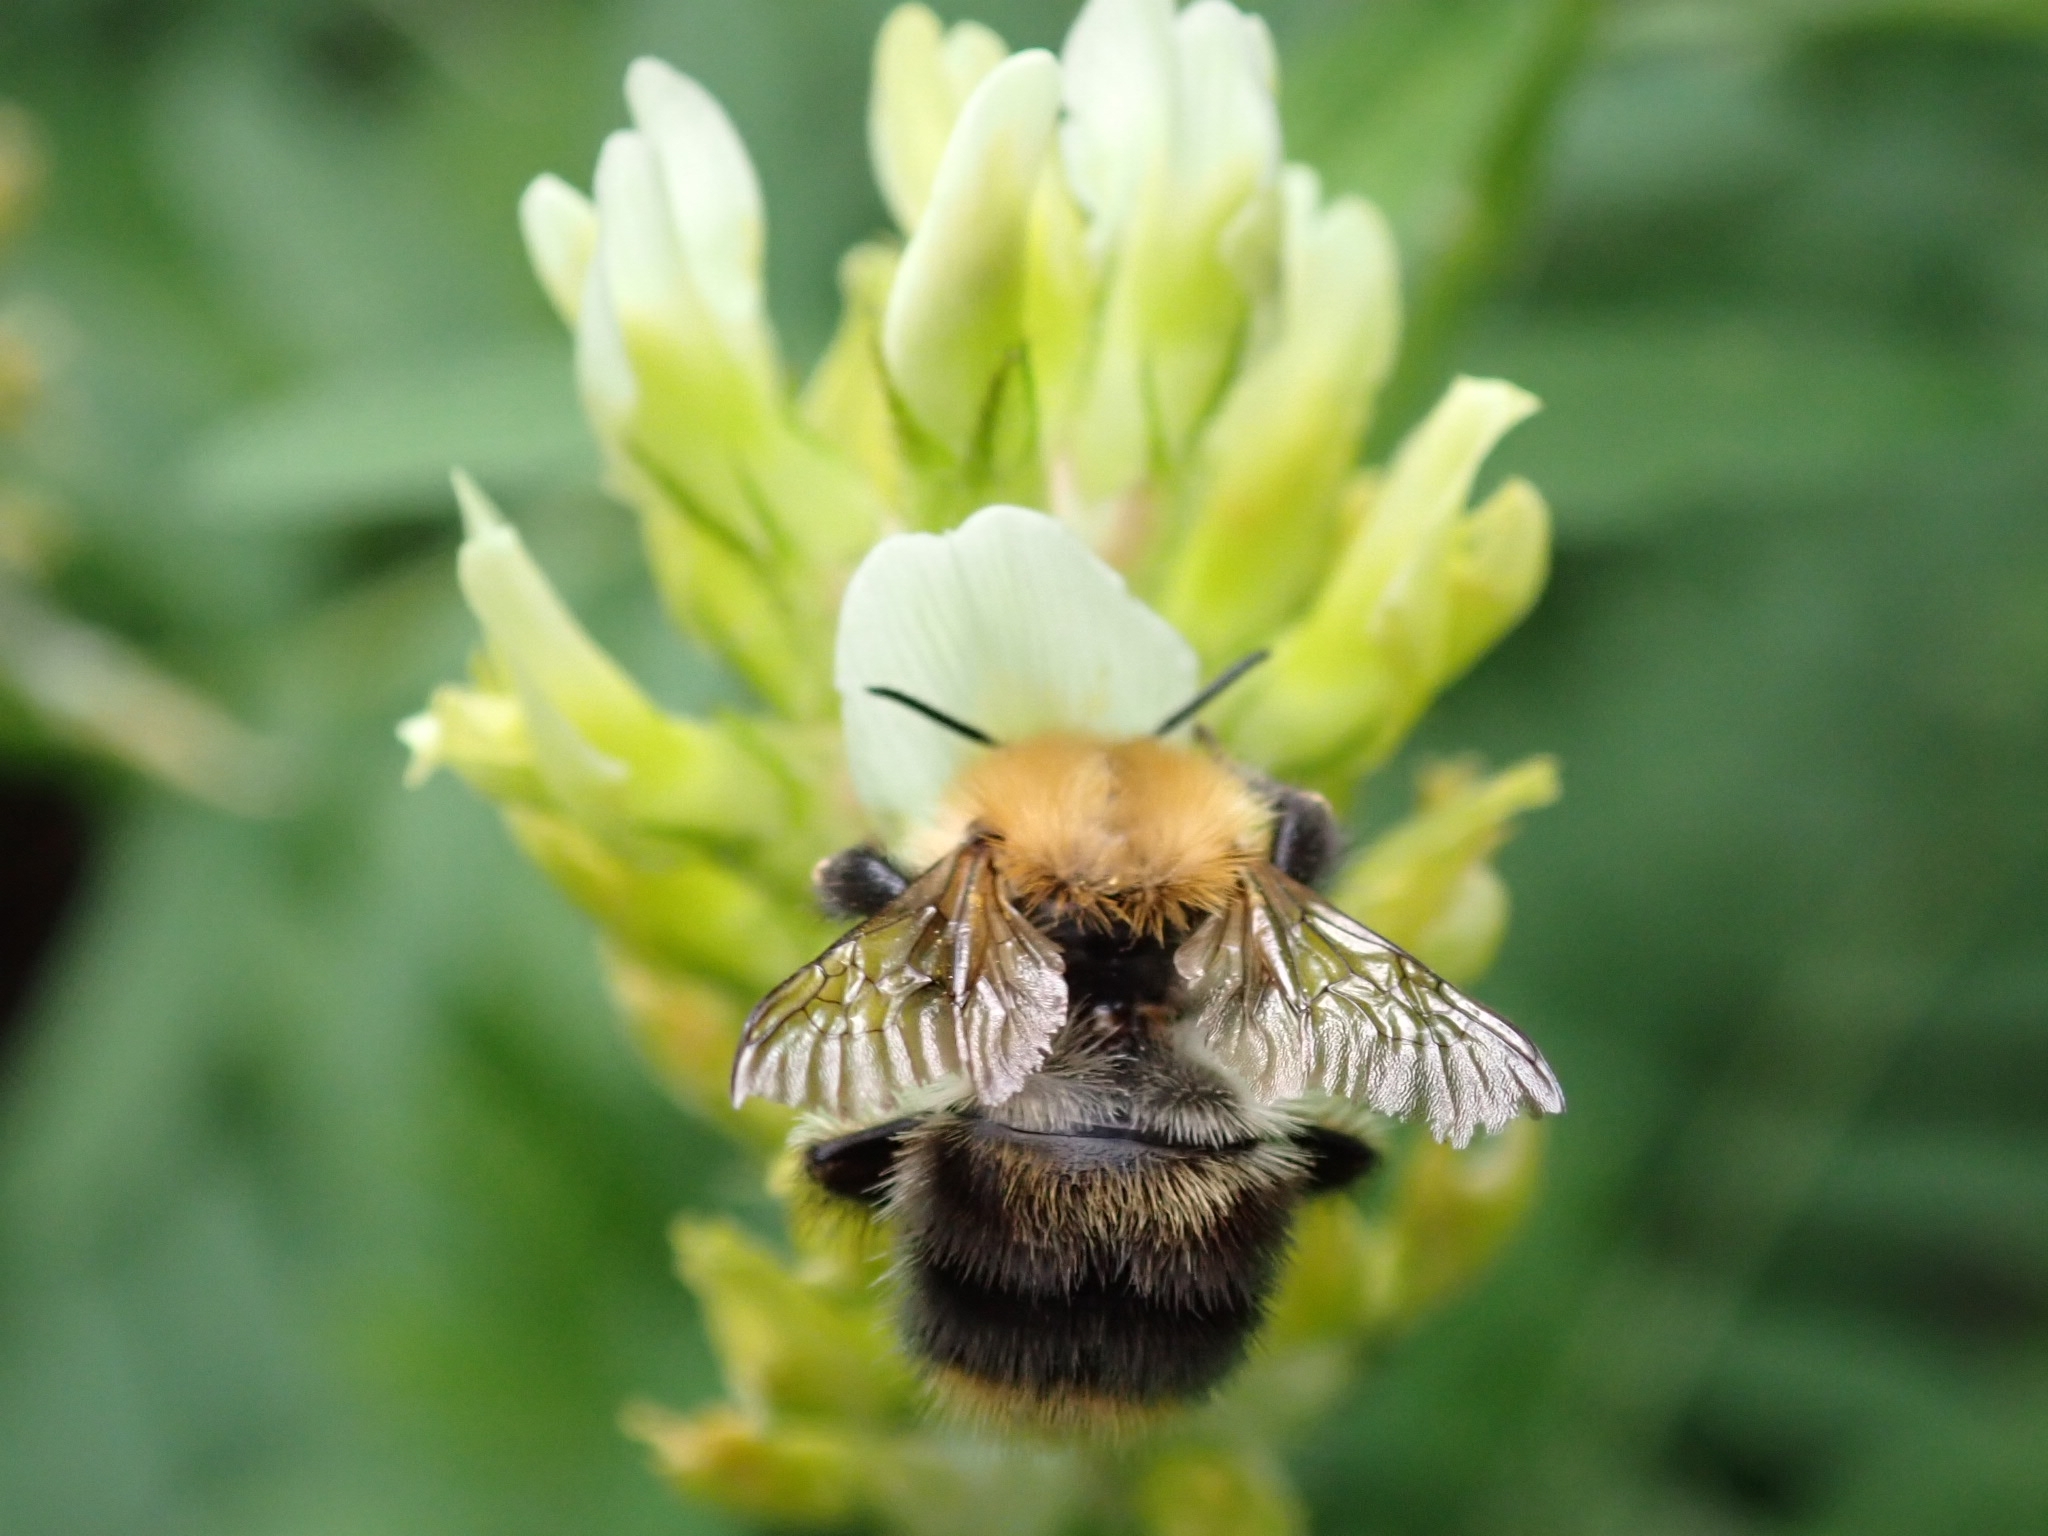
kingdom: Animalia
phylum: Arthropoda
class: Insecta
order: Hymenoptera
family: Apidae
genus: Bombus
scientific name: Bombus pascuorum
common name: Common carder bee
